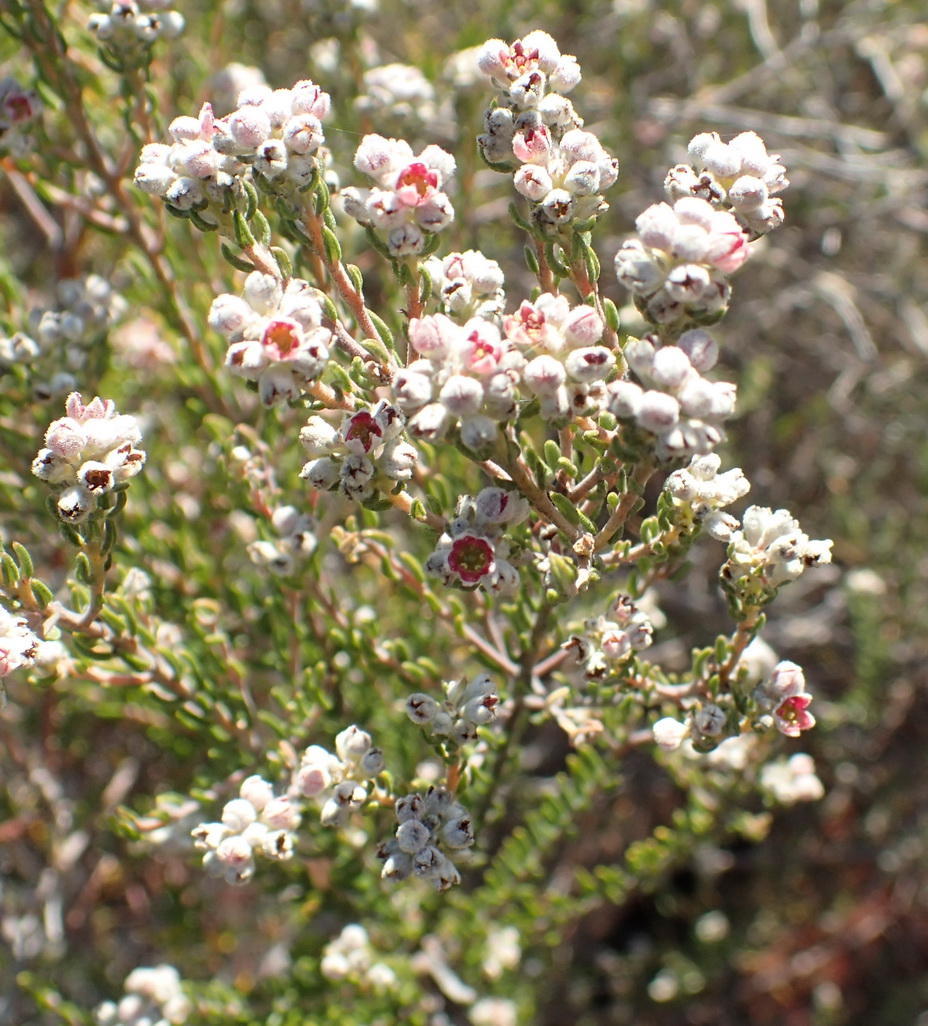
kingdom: Plantae
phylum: Tracheophyta
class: Magnoliopsida
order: Rosales
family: Rhamnaceae
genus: Phylica
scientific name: Phylica purpurea
